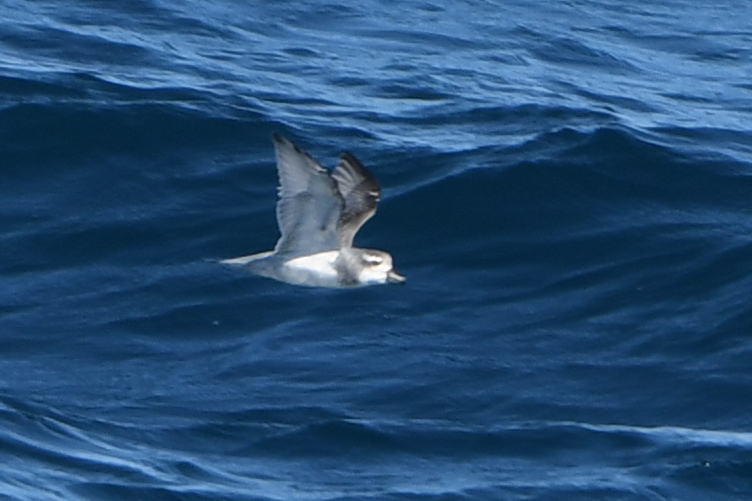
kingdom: Animalia
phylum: Chordata
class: Aves
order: Procellariiformes
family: Procellariidae
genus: Pachyptila
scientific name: Pachyptila vittata
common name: Broad-billed prion
